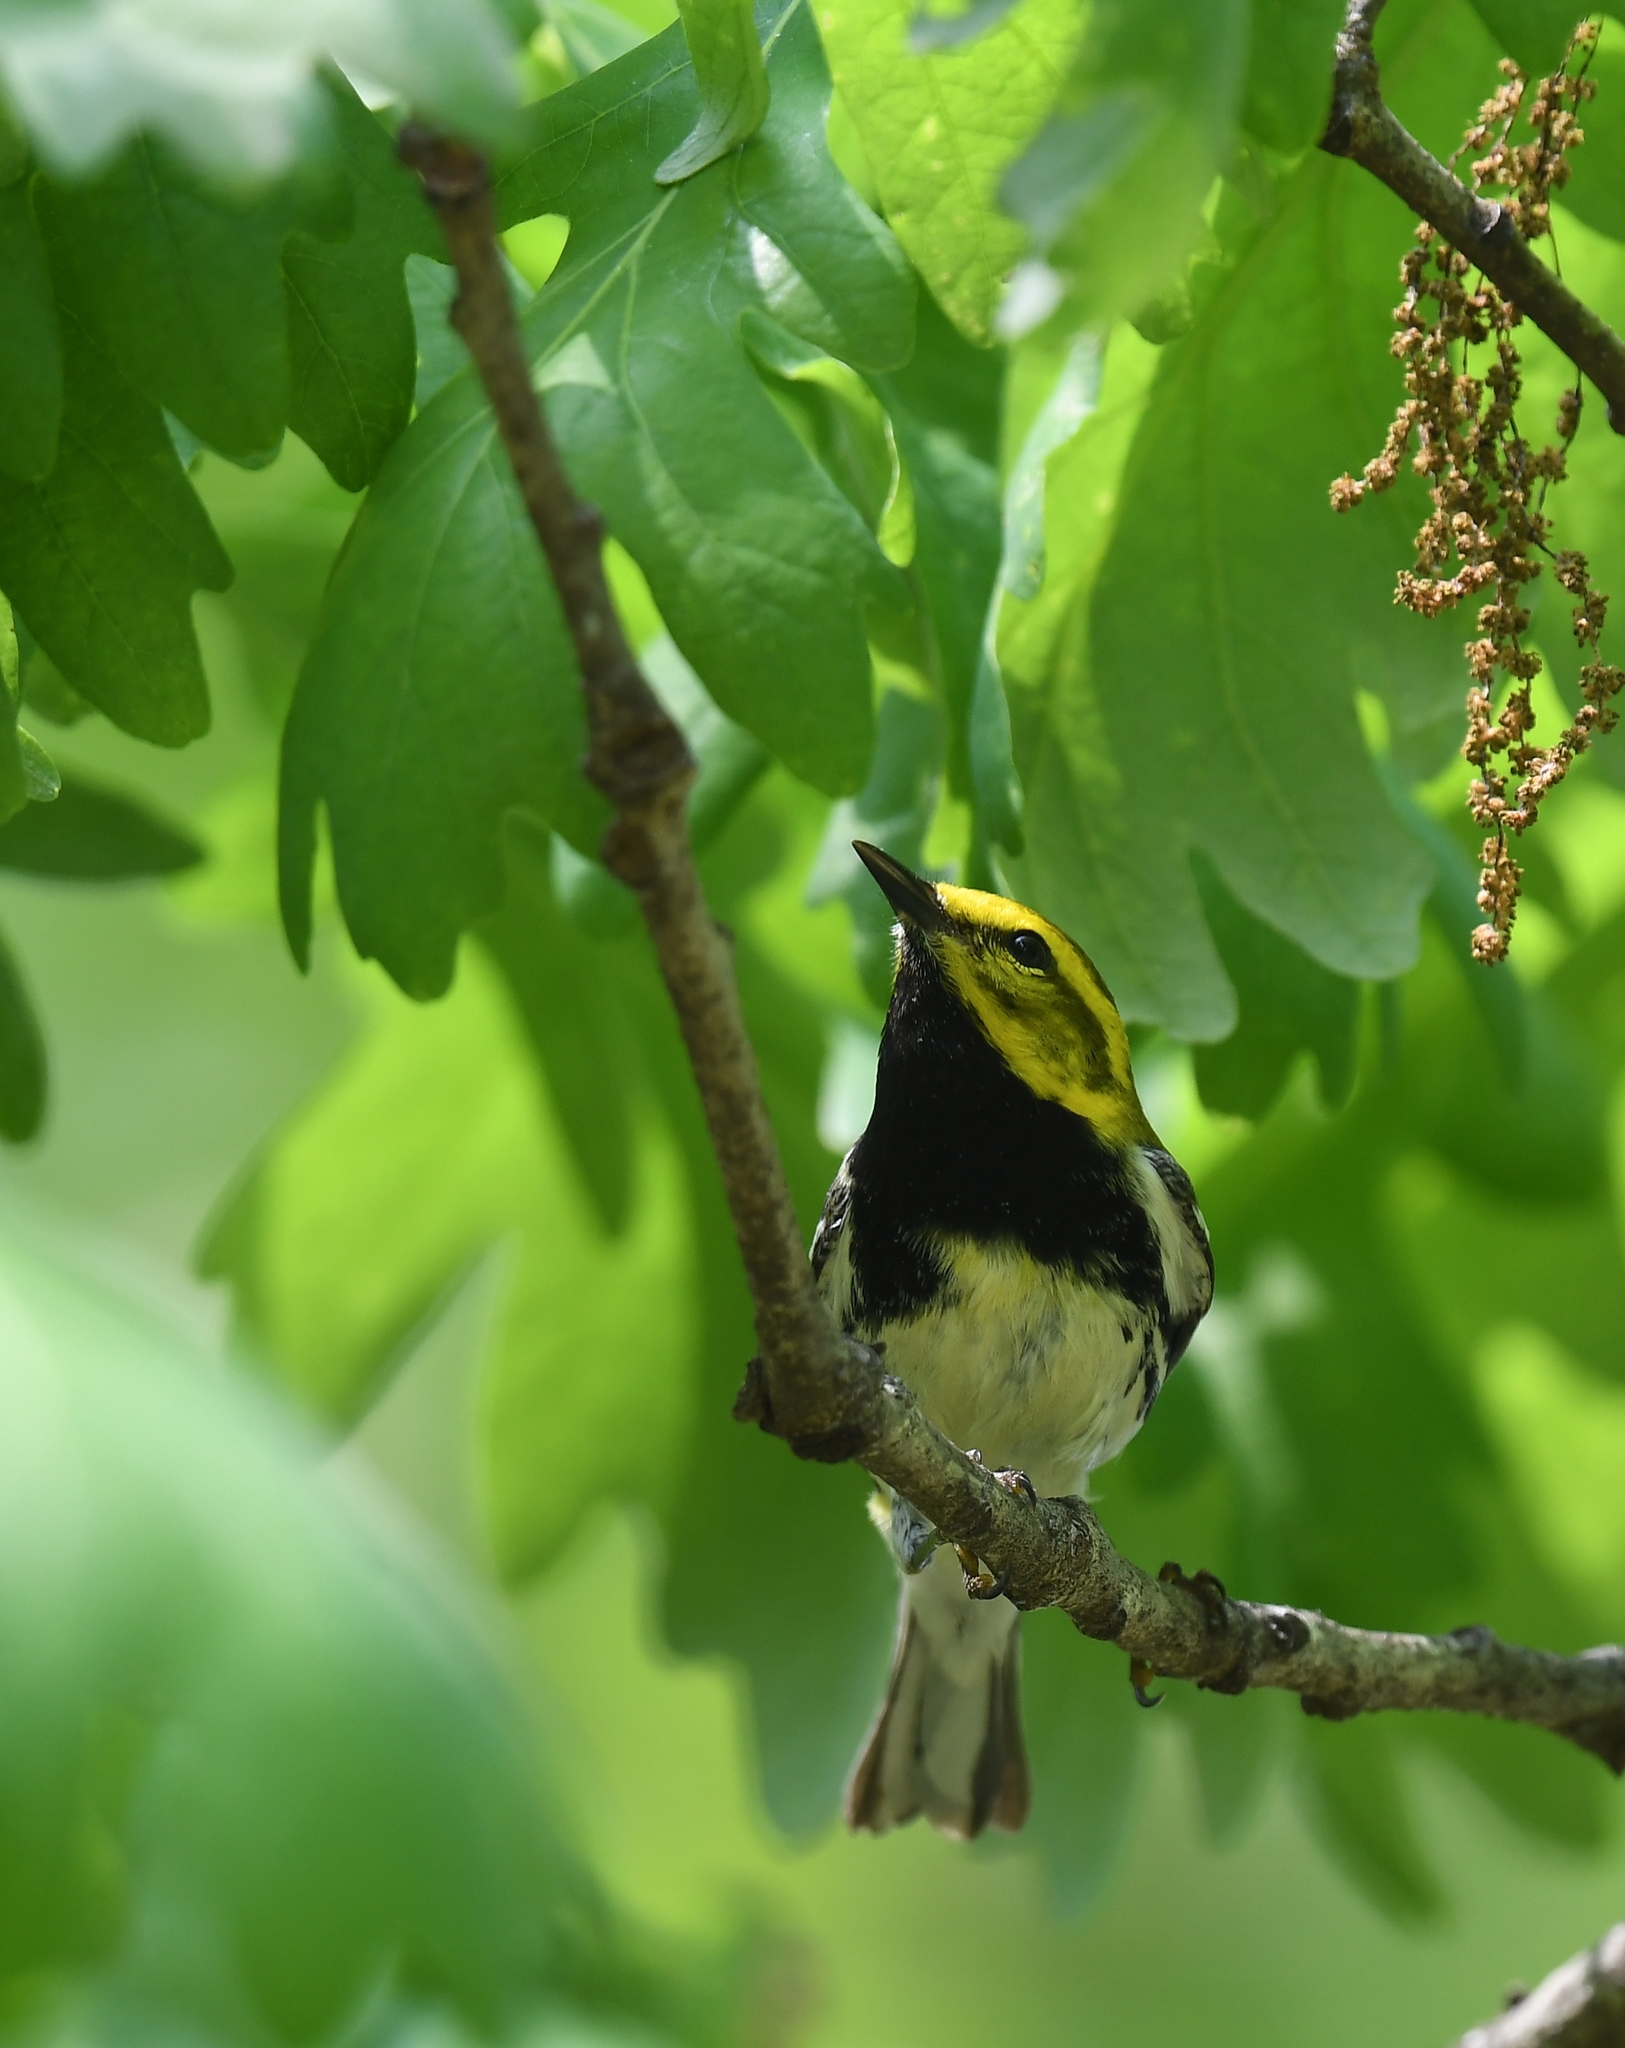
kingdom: Animalia
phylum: Chordata
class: Aves
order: Passeriformes
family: Parulidae
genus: Setophaga
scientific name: Setophaga virens
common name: Black-throated green warbler
